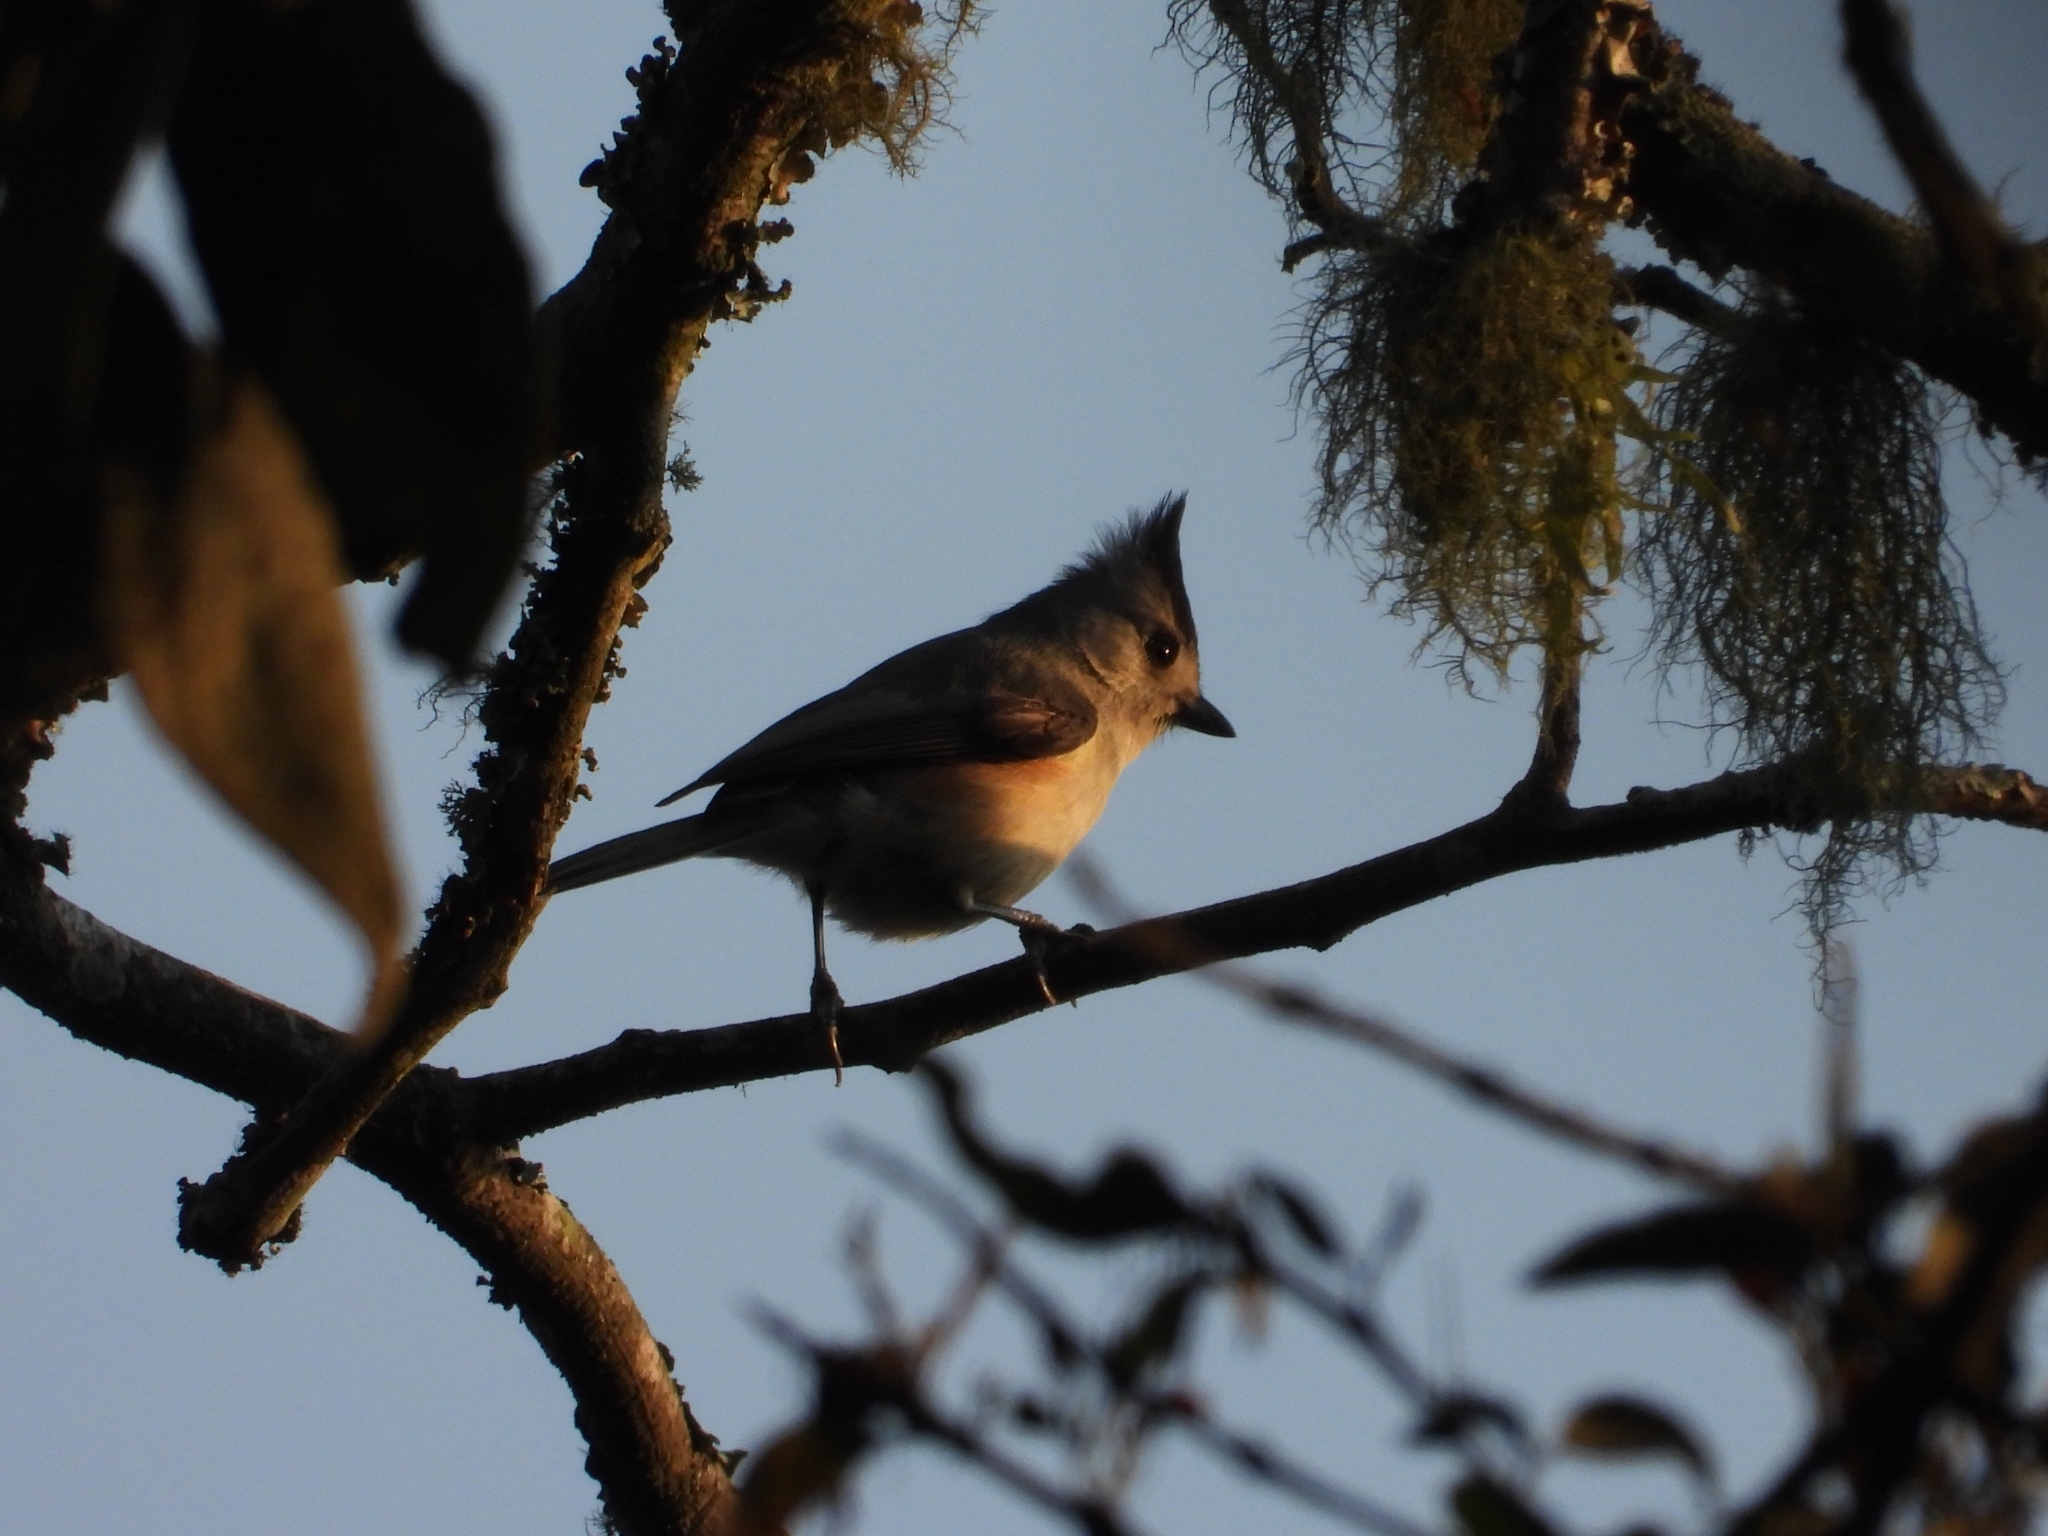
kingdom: Animalia
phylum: Chordata
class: Aves
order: Passeriformes
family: Paridae
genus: Baeolophus
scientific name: Baeolophus atricristatus
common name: Black-crested titmouse
